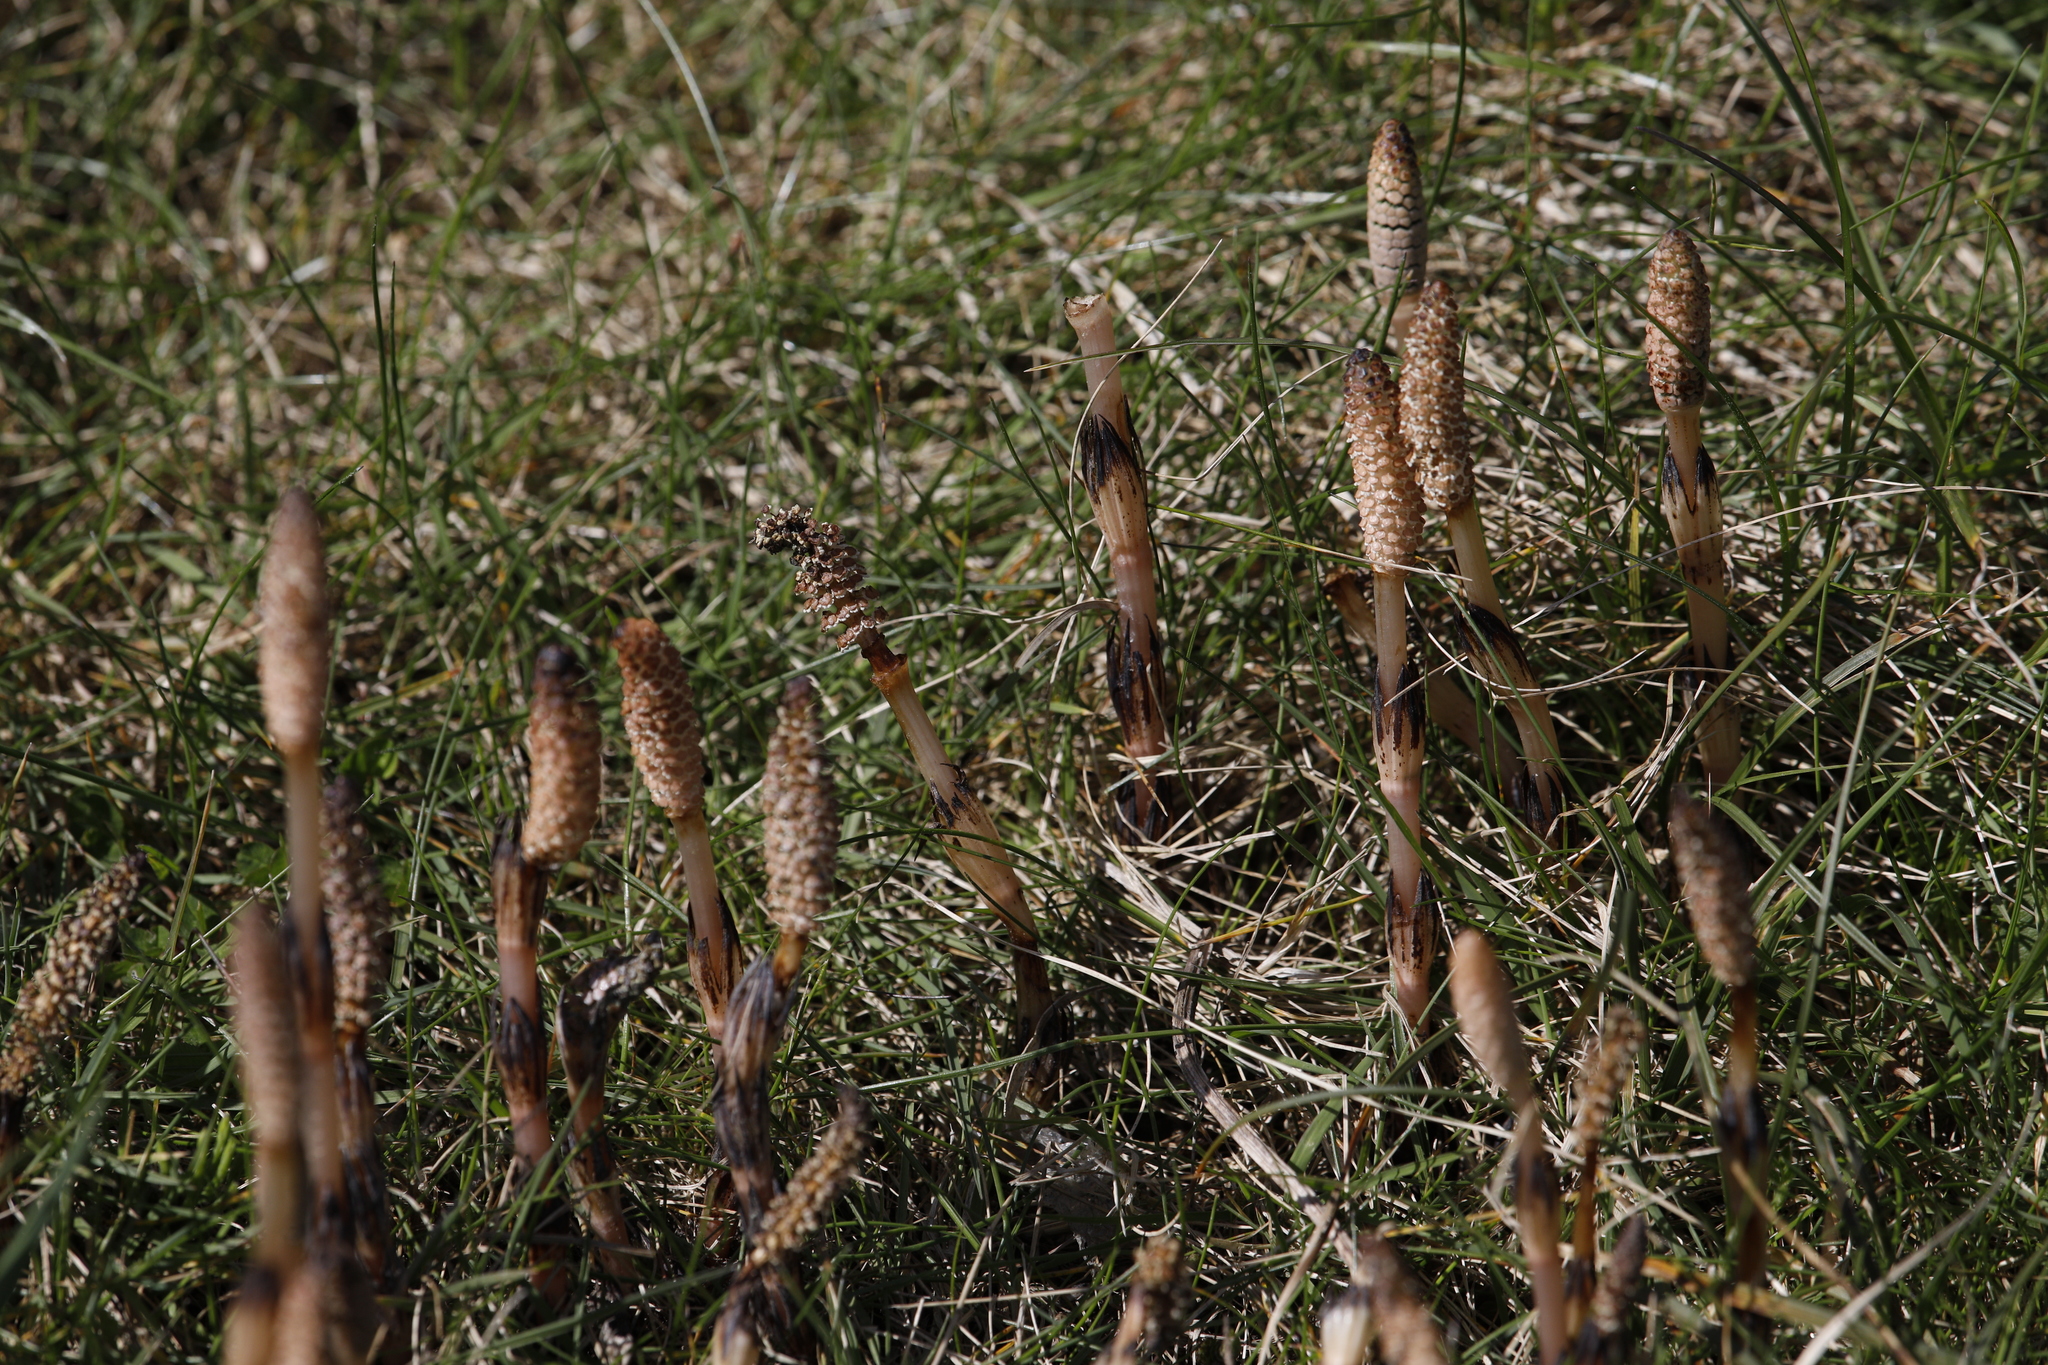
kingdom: Plantae
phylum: Tracheophyta
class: Polypodiopsida
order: Equisetales
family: Equisetaceae
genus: Equisetum
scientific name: Equisetum arvense
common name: Field horsetail
